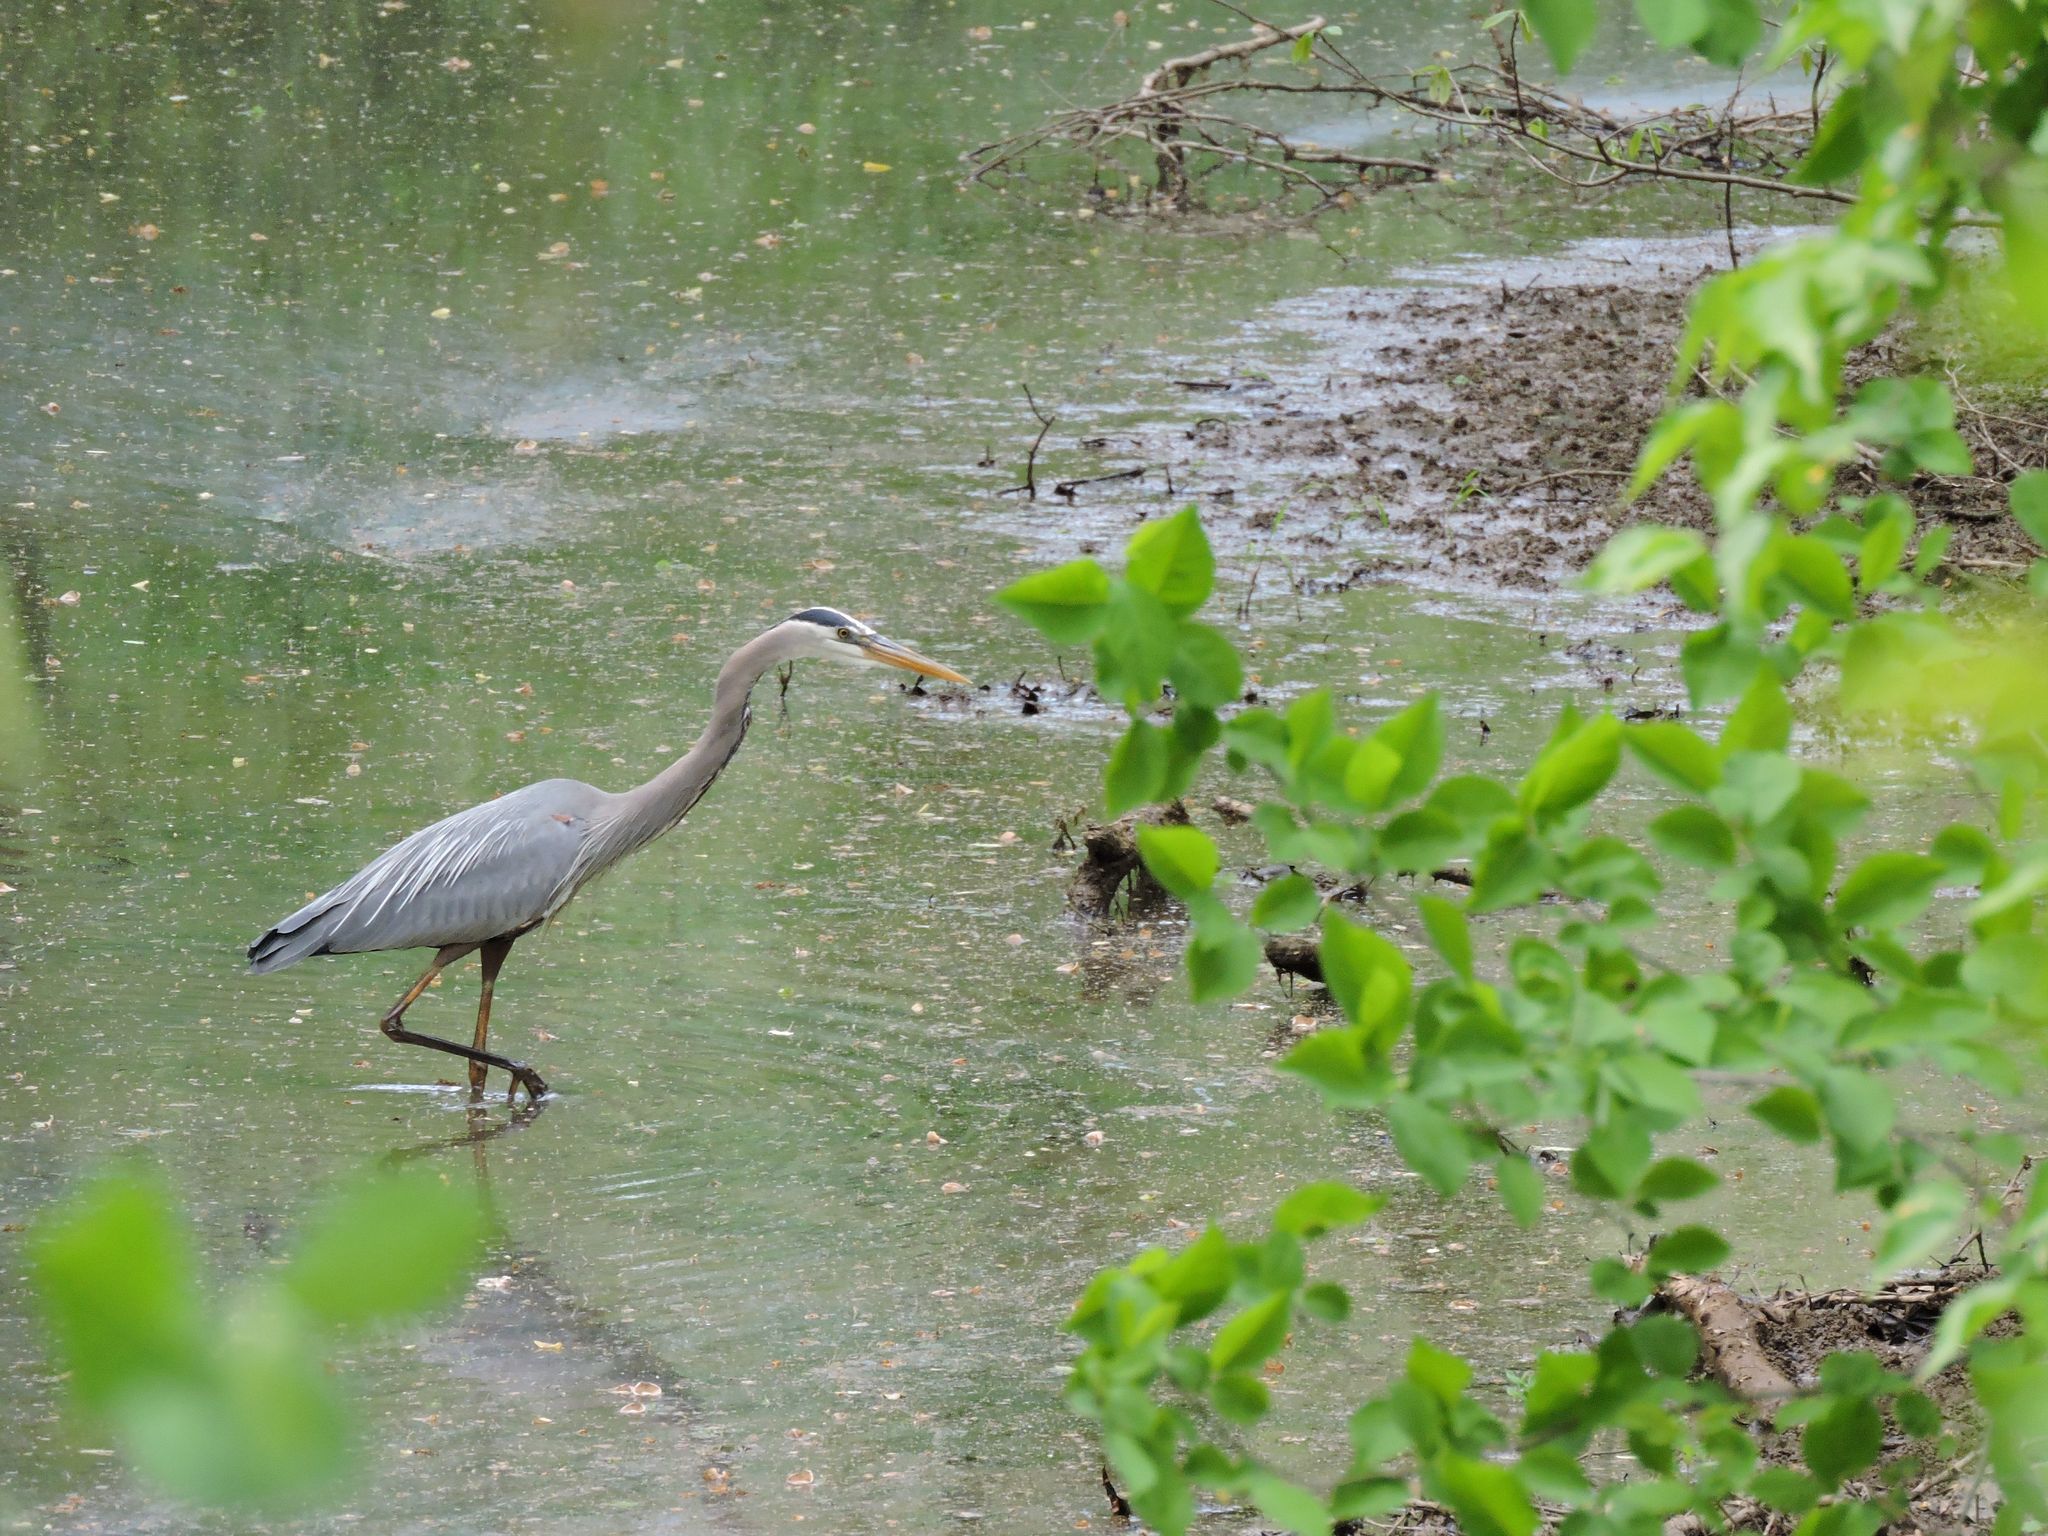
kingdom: Animalia
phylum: Chordata
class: Aves
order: Pelecaniformes
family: Ardeidae
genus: Ardea
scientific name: Ardea herodias
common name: Great blue heron
